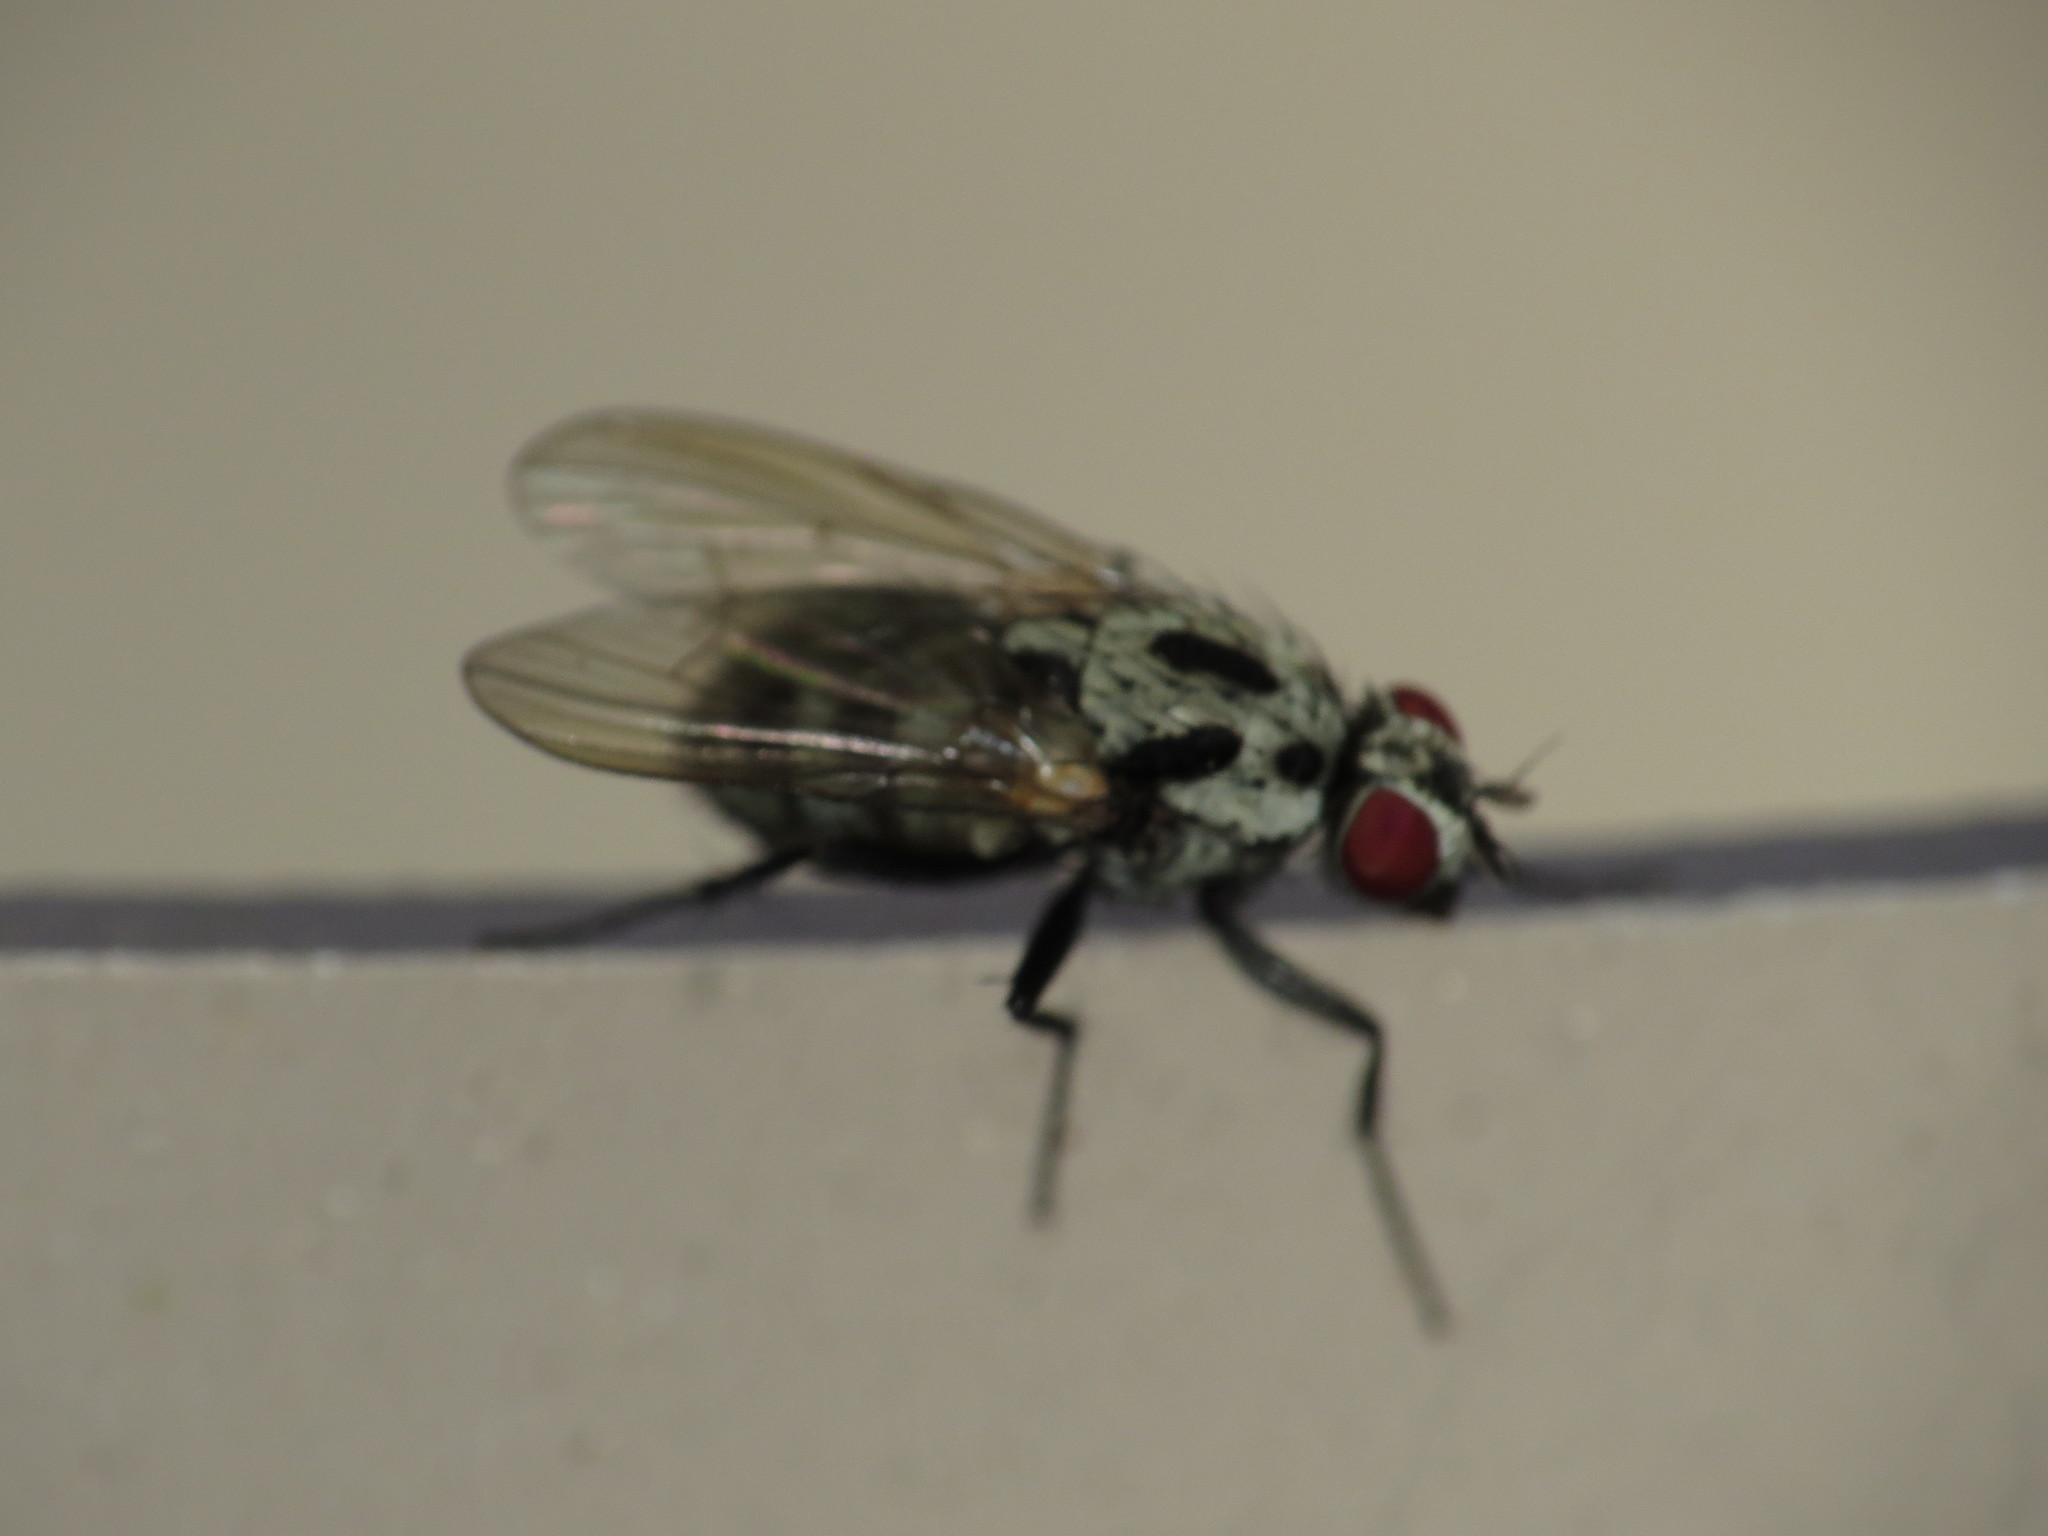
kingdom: Animalia
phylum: Arthropoda
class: Insecta
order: Diptera
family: Anthomyiidae
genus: Anthomyia
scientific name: Anthomyia procellaris
